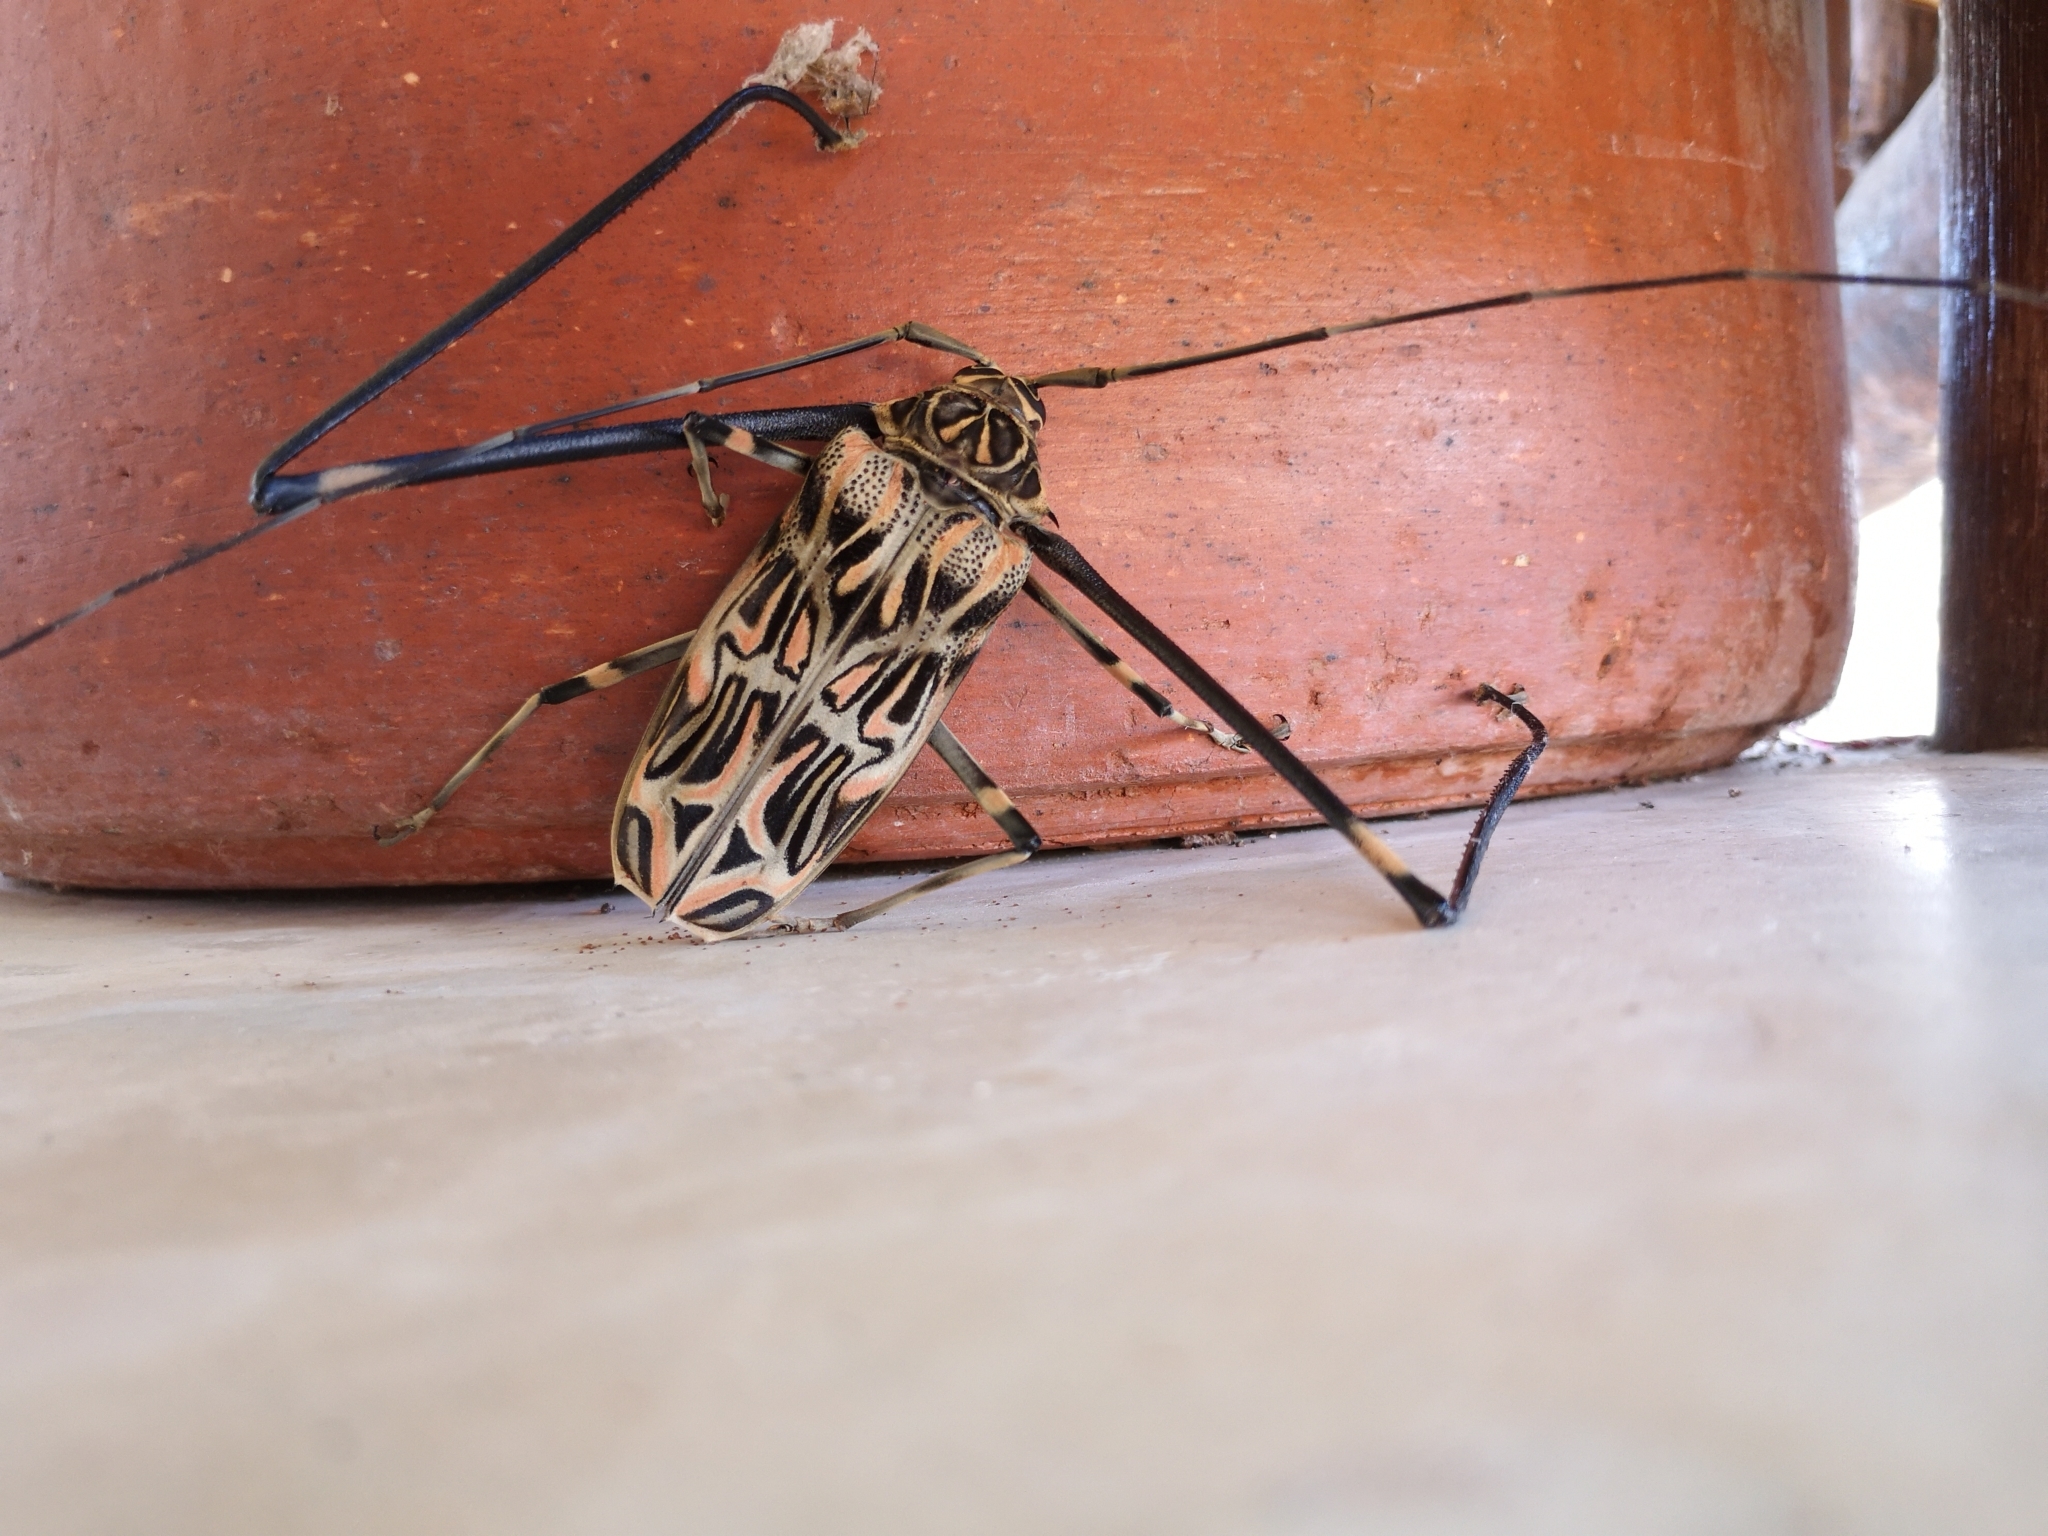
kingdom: Animalia
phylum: Arthropoda
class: Insecta
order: Coleoptera
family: Cerambycidae
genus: Acrocinus
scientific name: Acrocinus longimanus
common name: Arlequin
